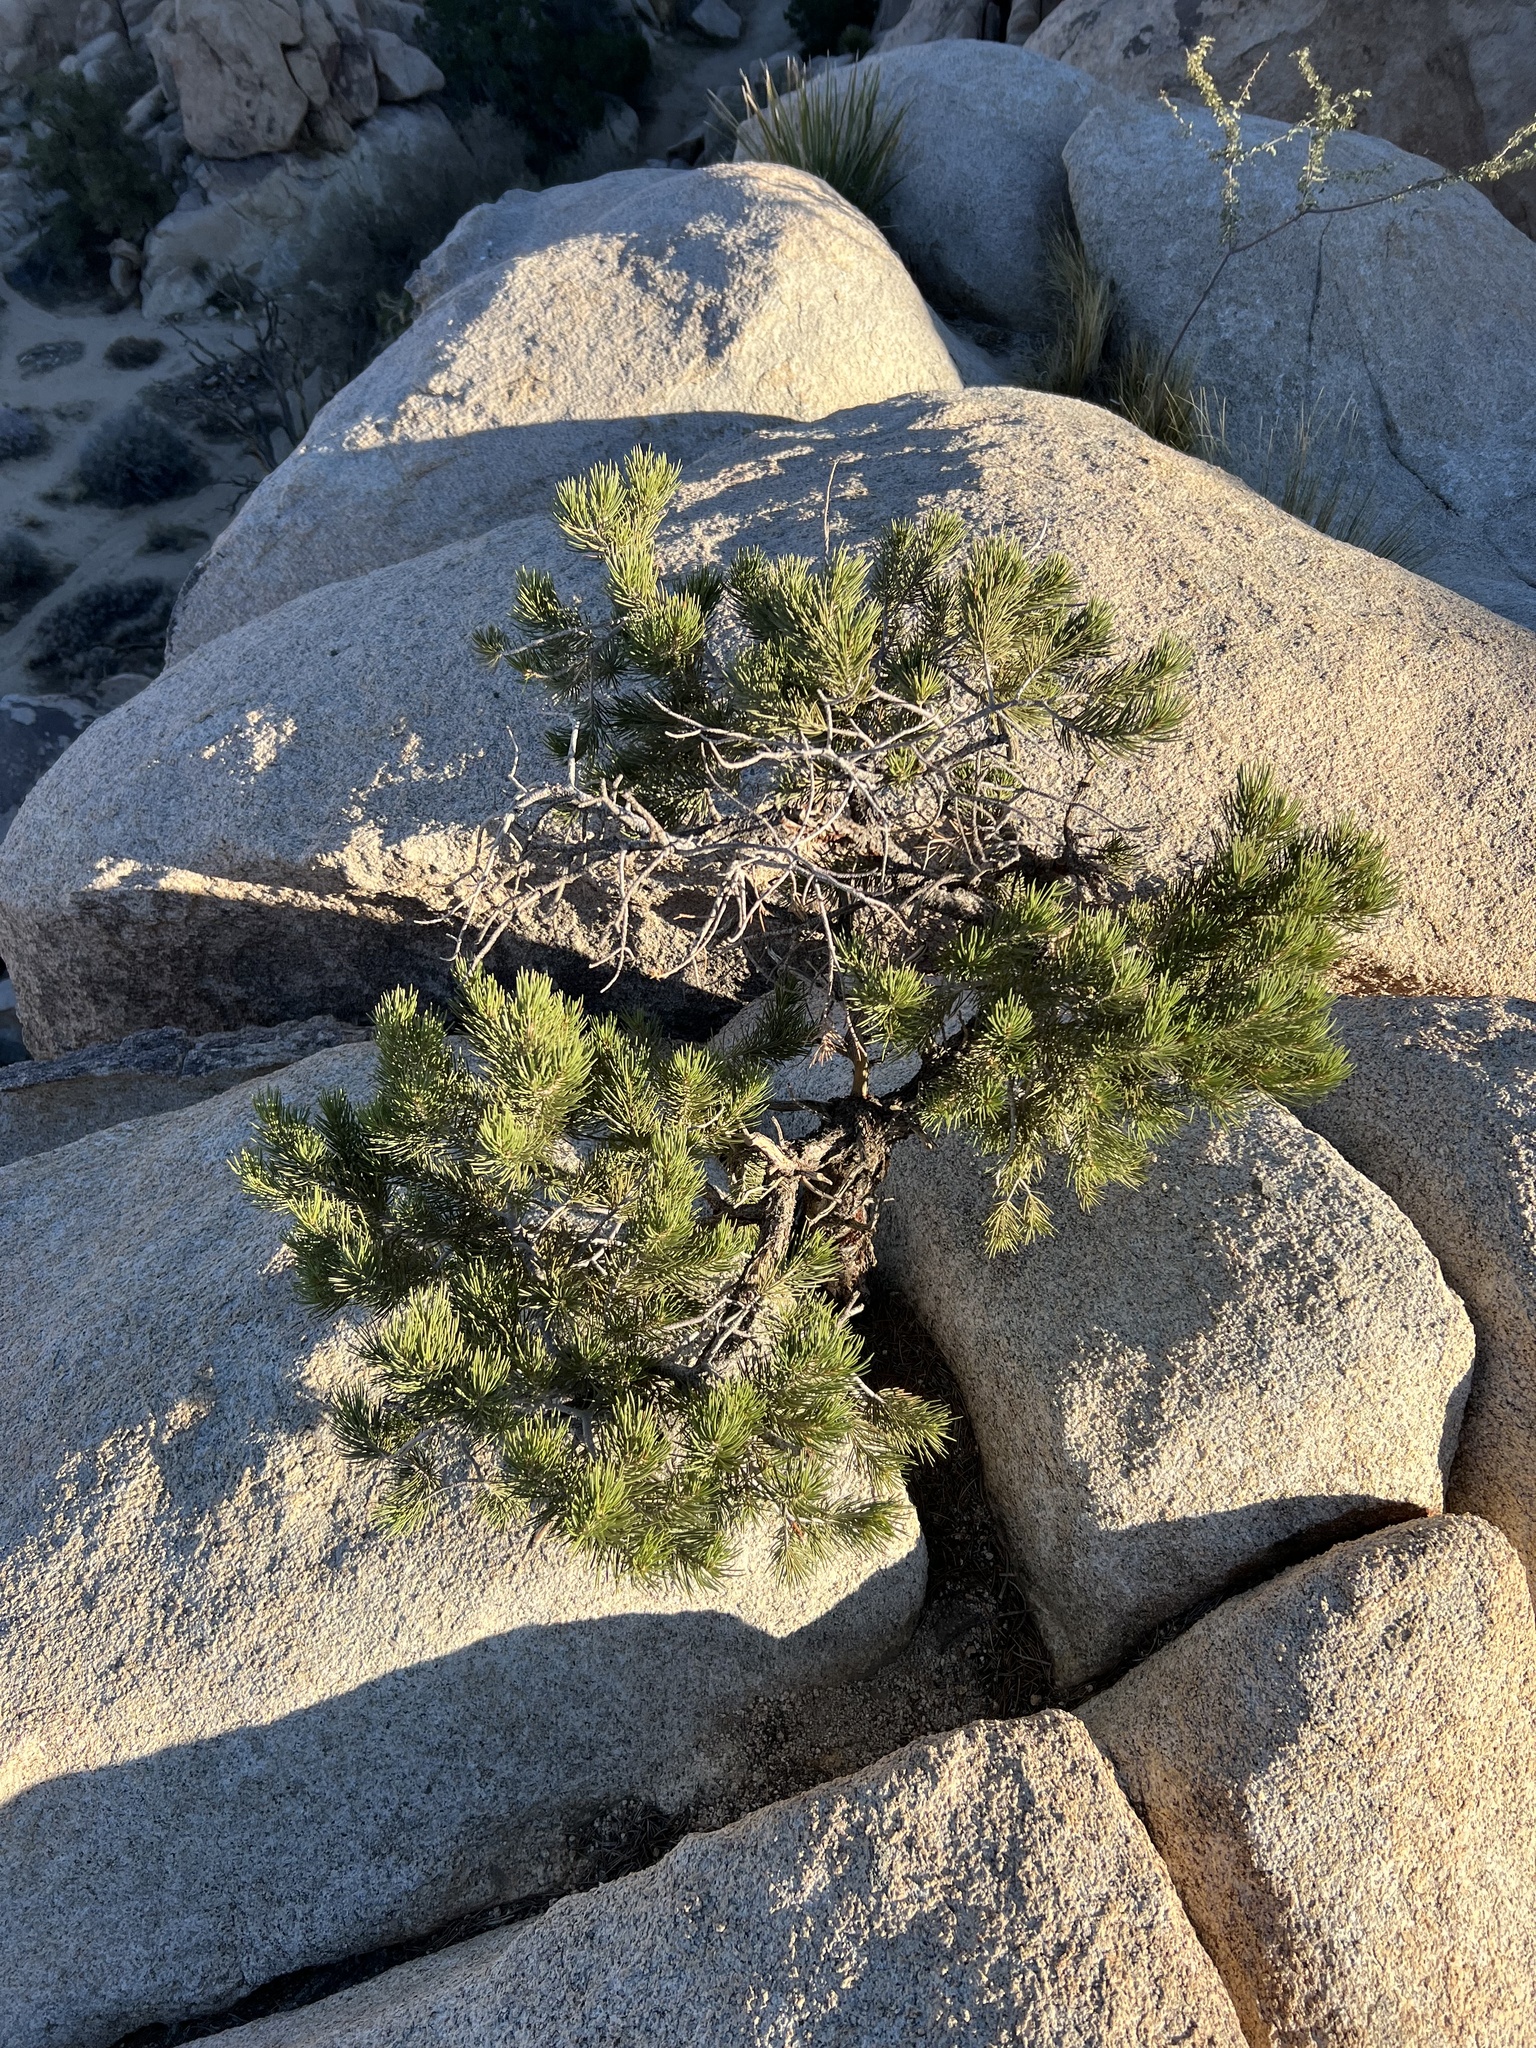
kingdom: Plantae
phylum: Tracheophyta
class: Pinopsida
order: Pinales
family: Pinaceae
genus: Pinus
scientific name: Pinus monophylla
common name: One-leaved nut pine
